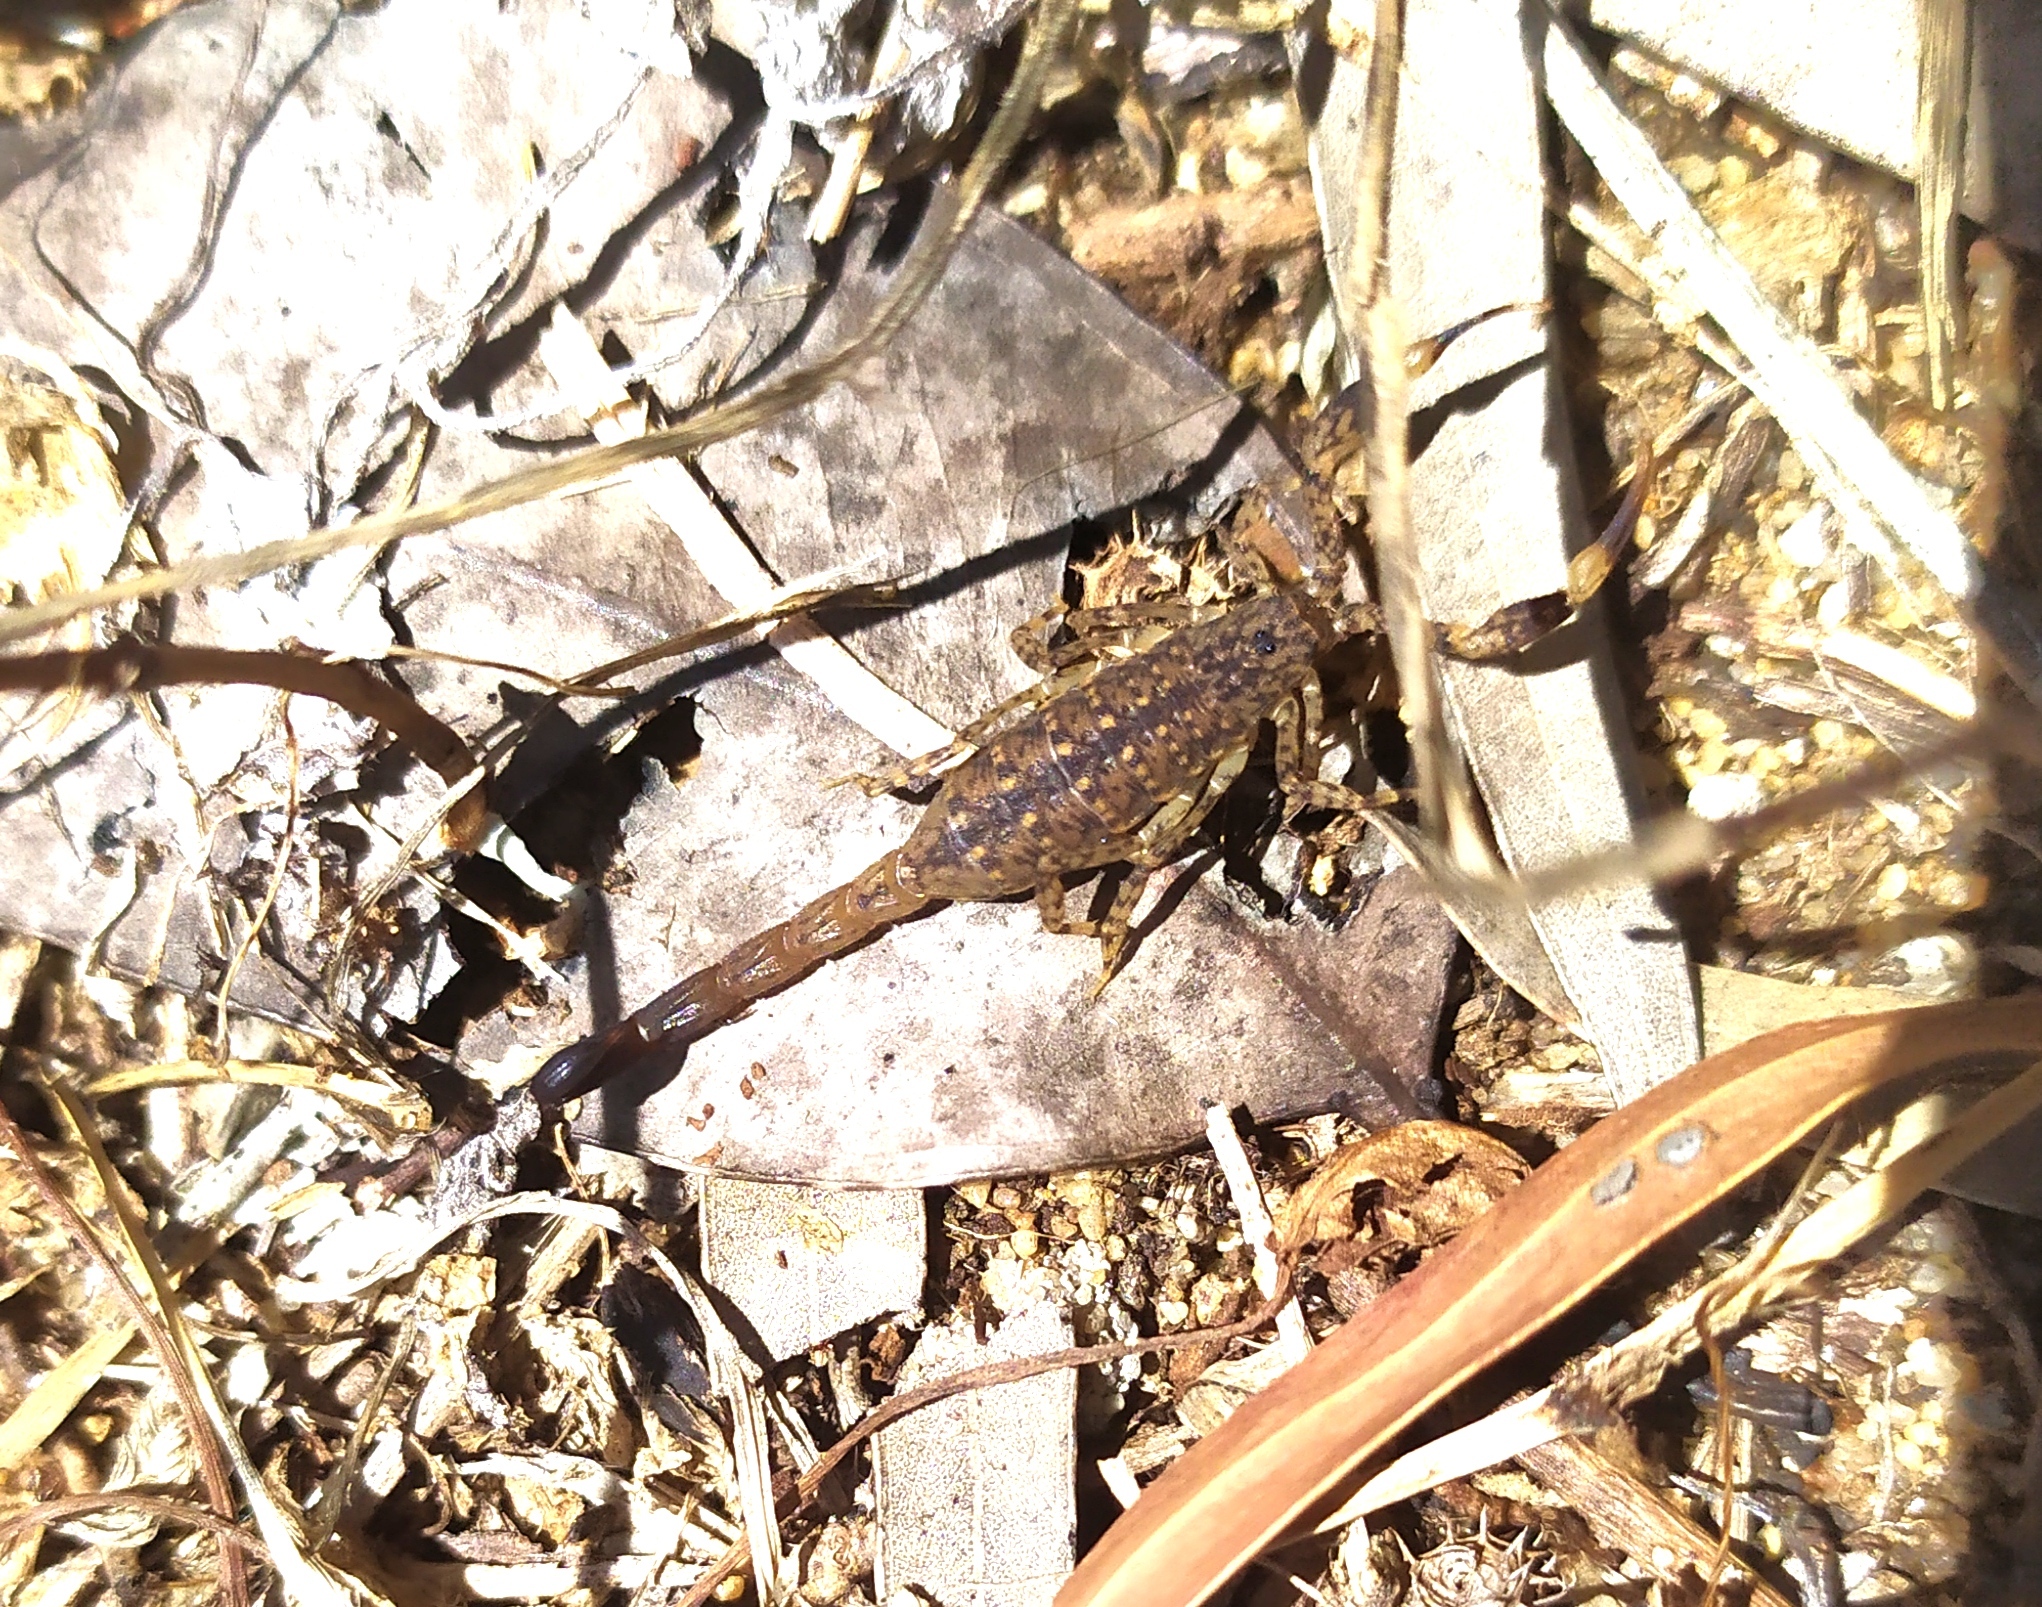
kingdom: Animalia
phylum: Arthropoda
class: Arachnida
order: Scorpiones
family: Buthidae
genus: Lychas
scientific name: Lychas marmoreus
